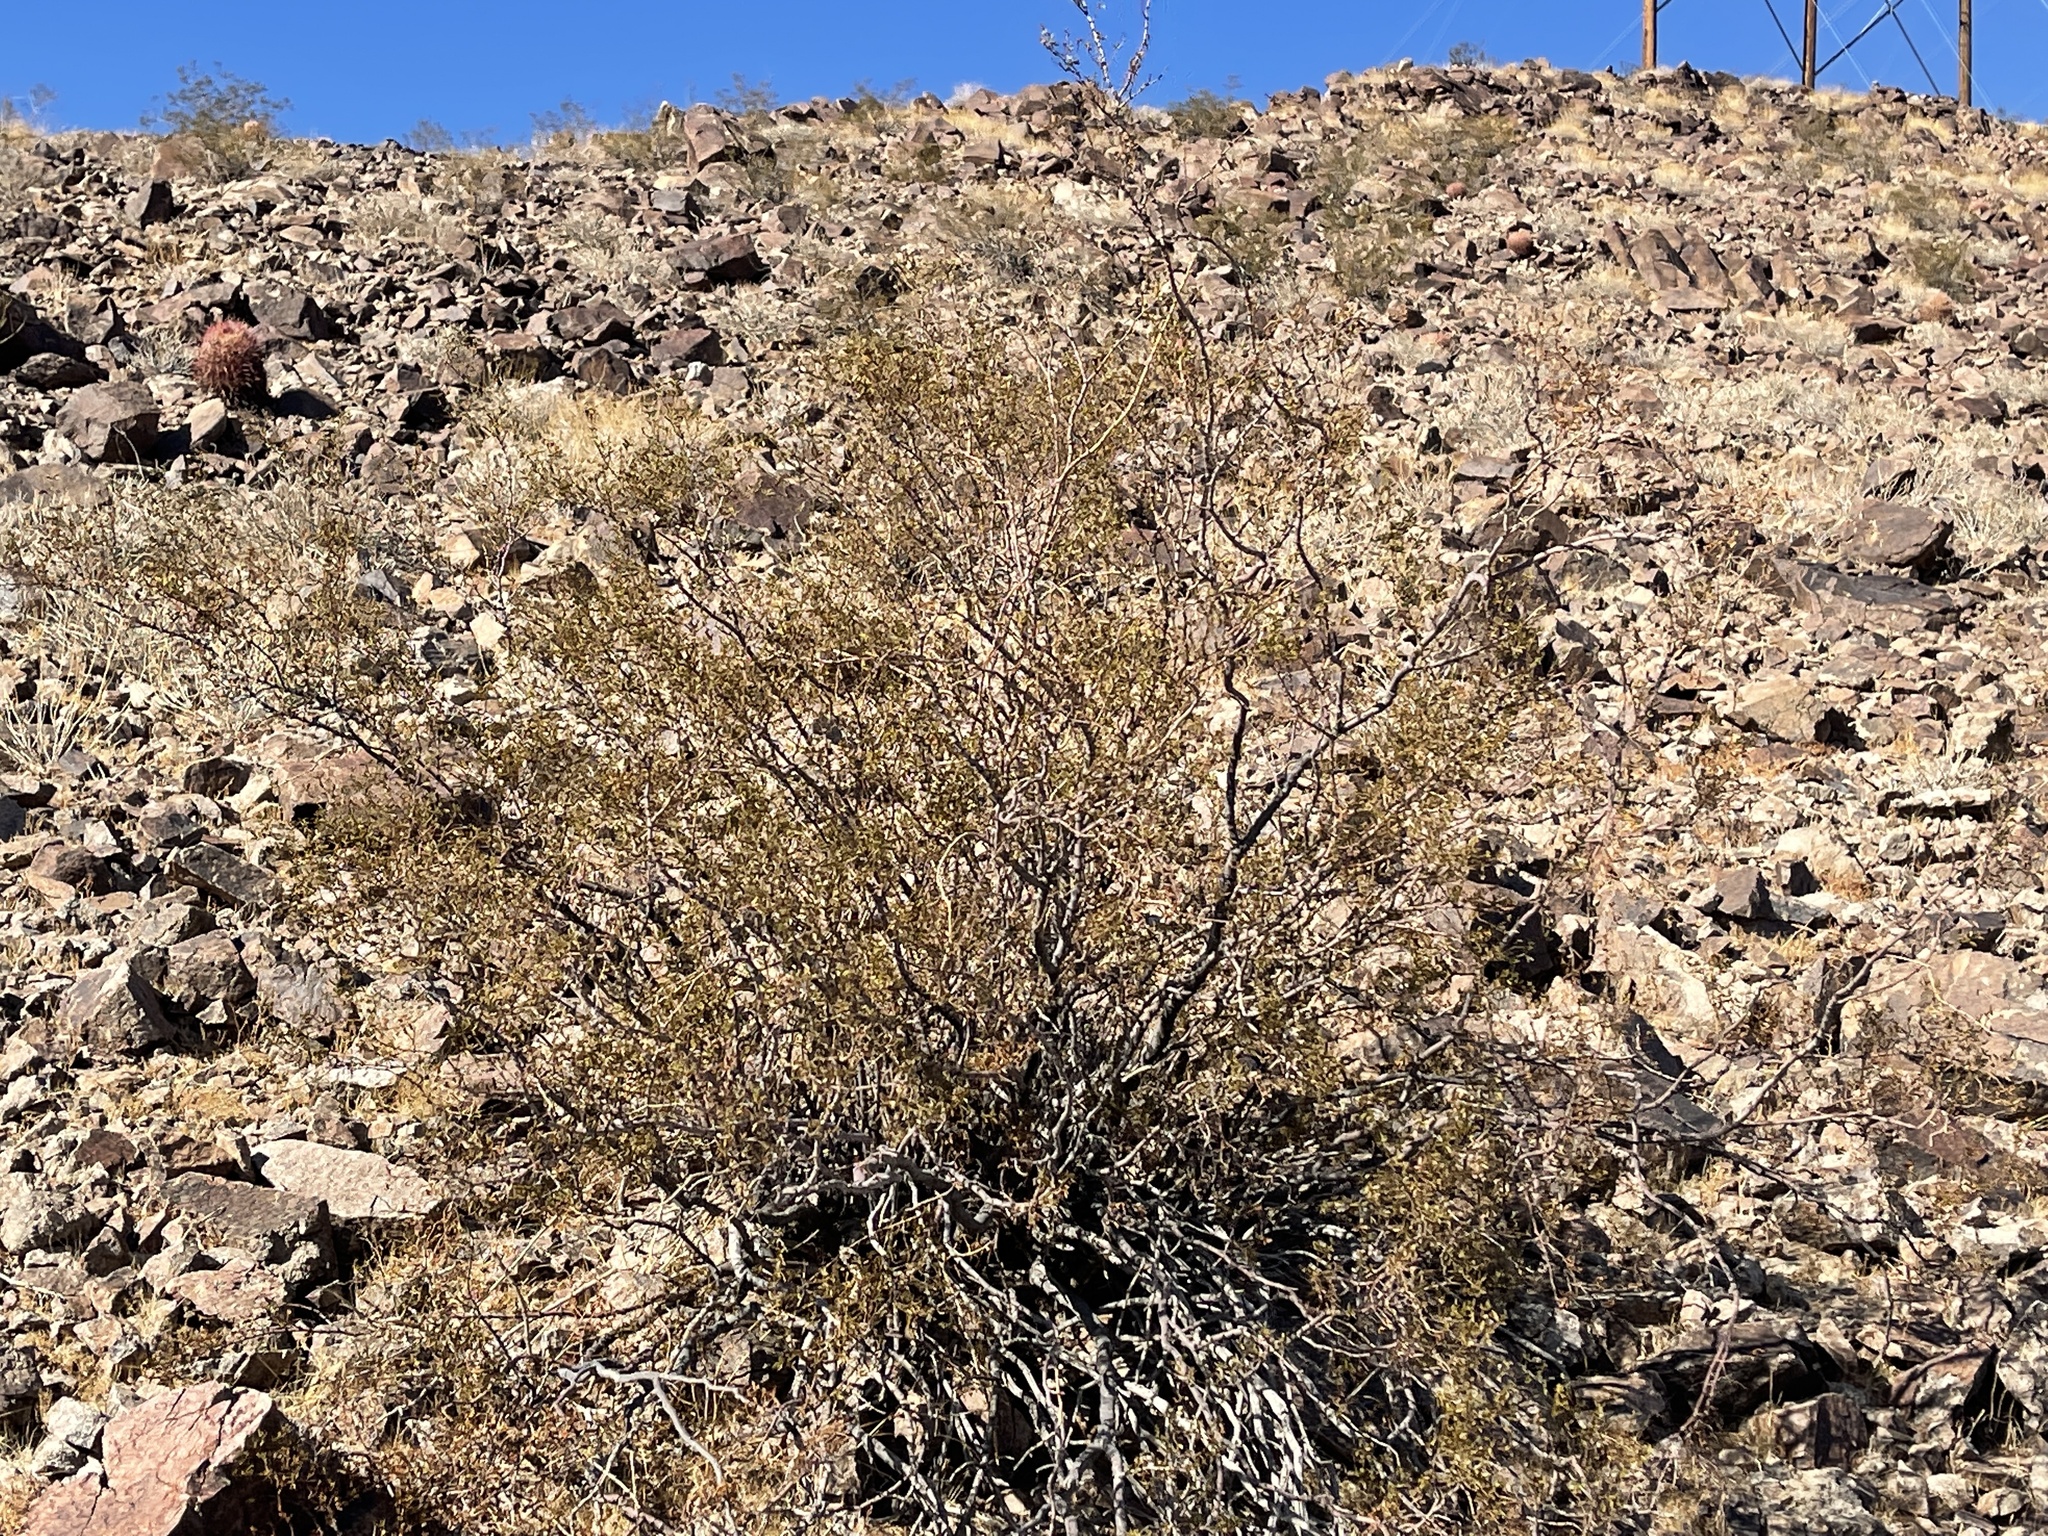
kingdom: Plantae
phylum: Tracheophyta
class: Magnoliopsida
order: Zygophyllales
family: Zygophyllaceae
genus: Larrea
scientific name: Larrea tridentata
